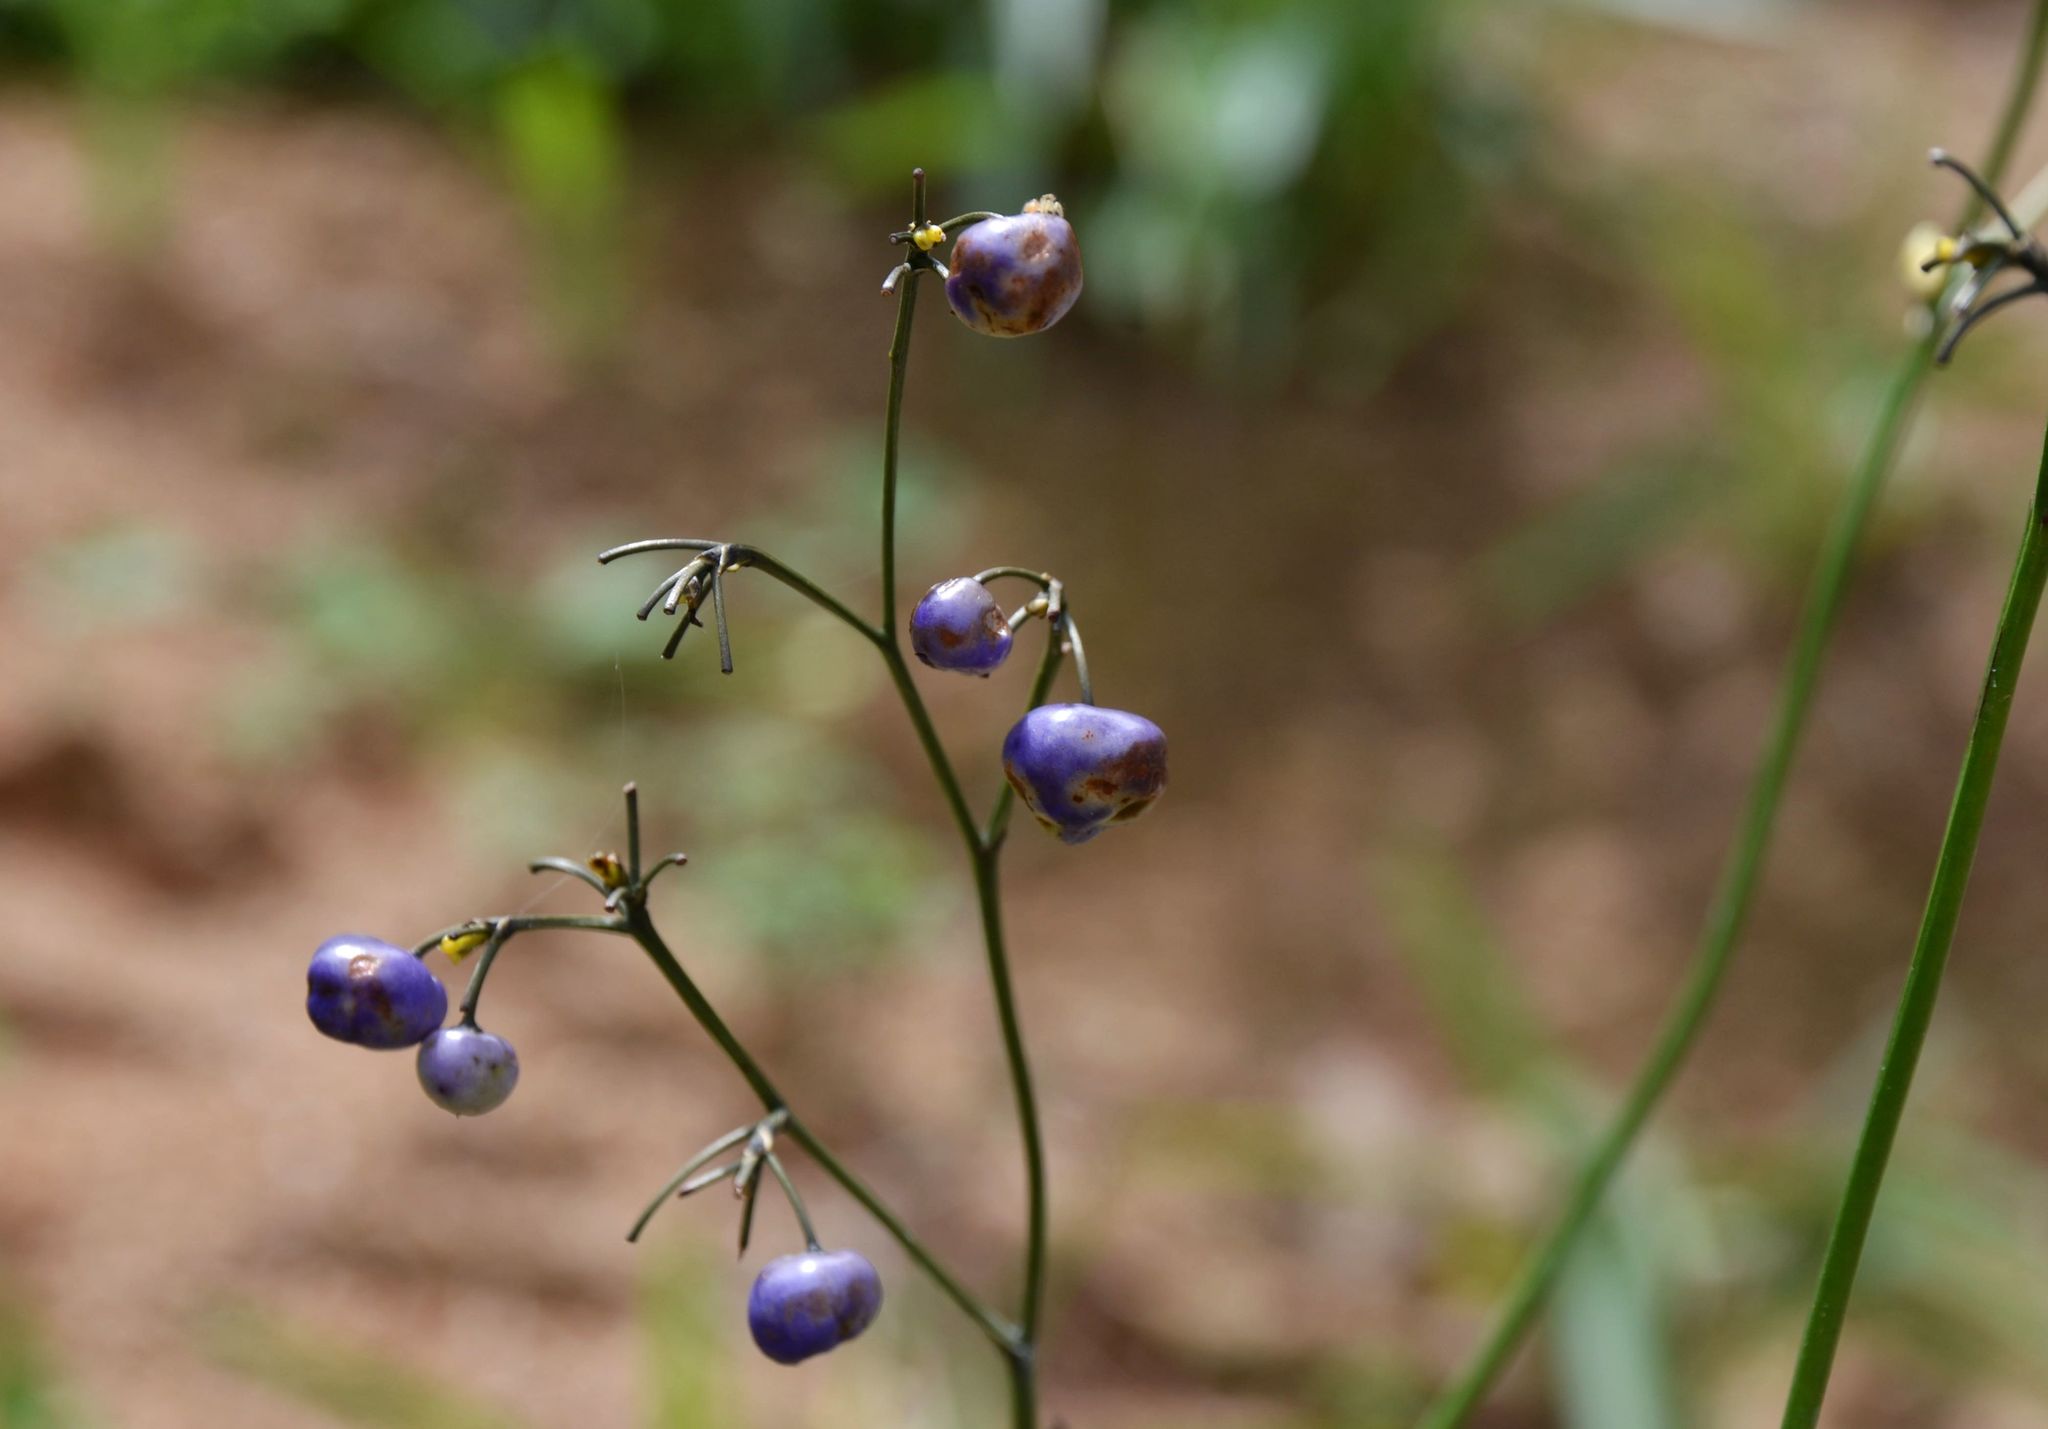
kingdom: Plantae
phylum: Tracheophyta
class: Liliopsida
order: Asparagales
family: Asphodelaceae
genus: Dianella
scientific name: Dianella ensifolia
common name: New zealand lilyplant
